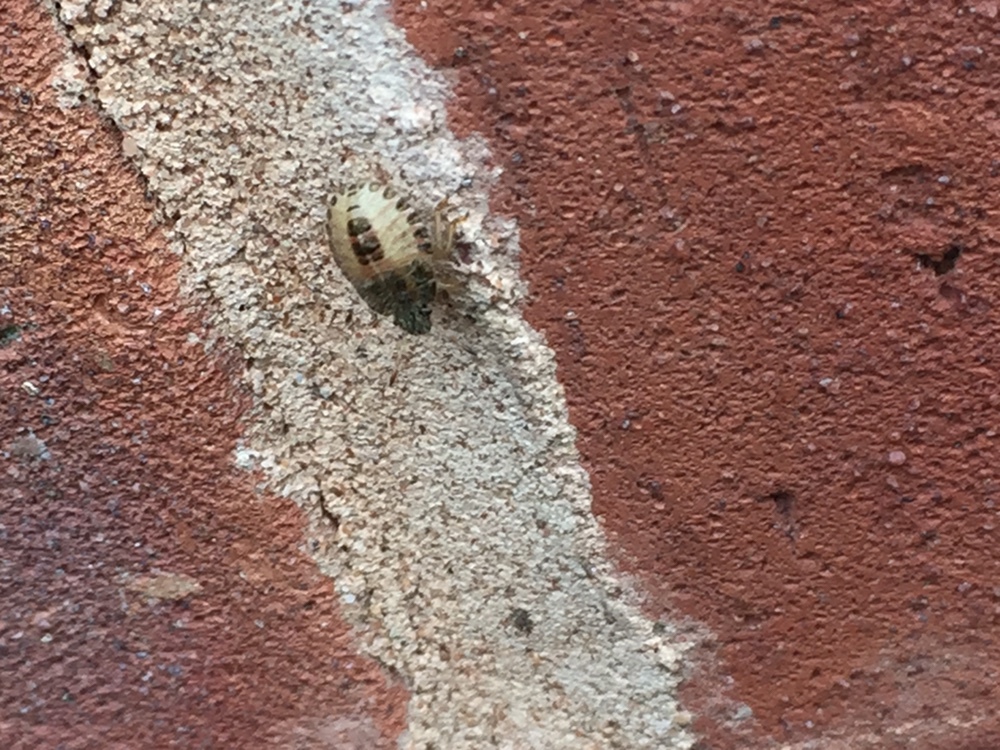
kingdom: Animalia
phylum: Arthropoda
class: Insecta
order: Hemiptera
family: Pentatomidae
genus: Dolycoris
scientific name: Dolycoris baccarum
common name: Sloe bug
